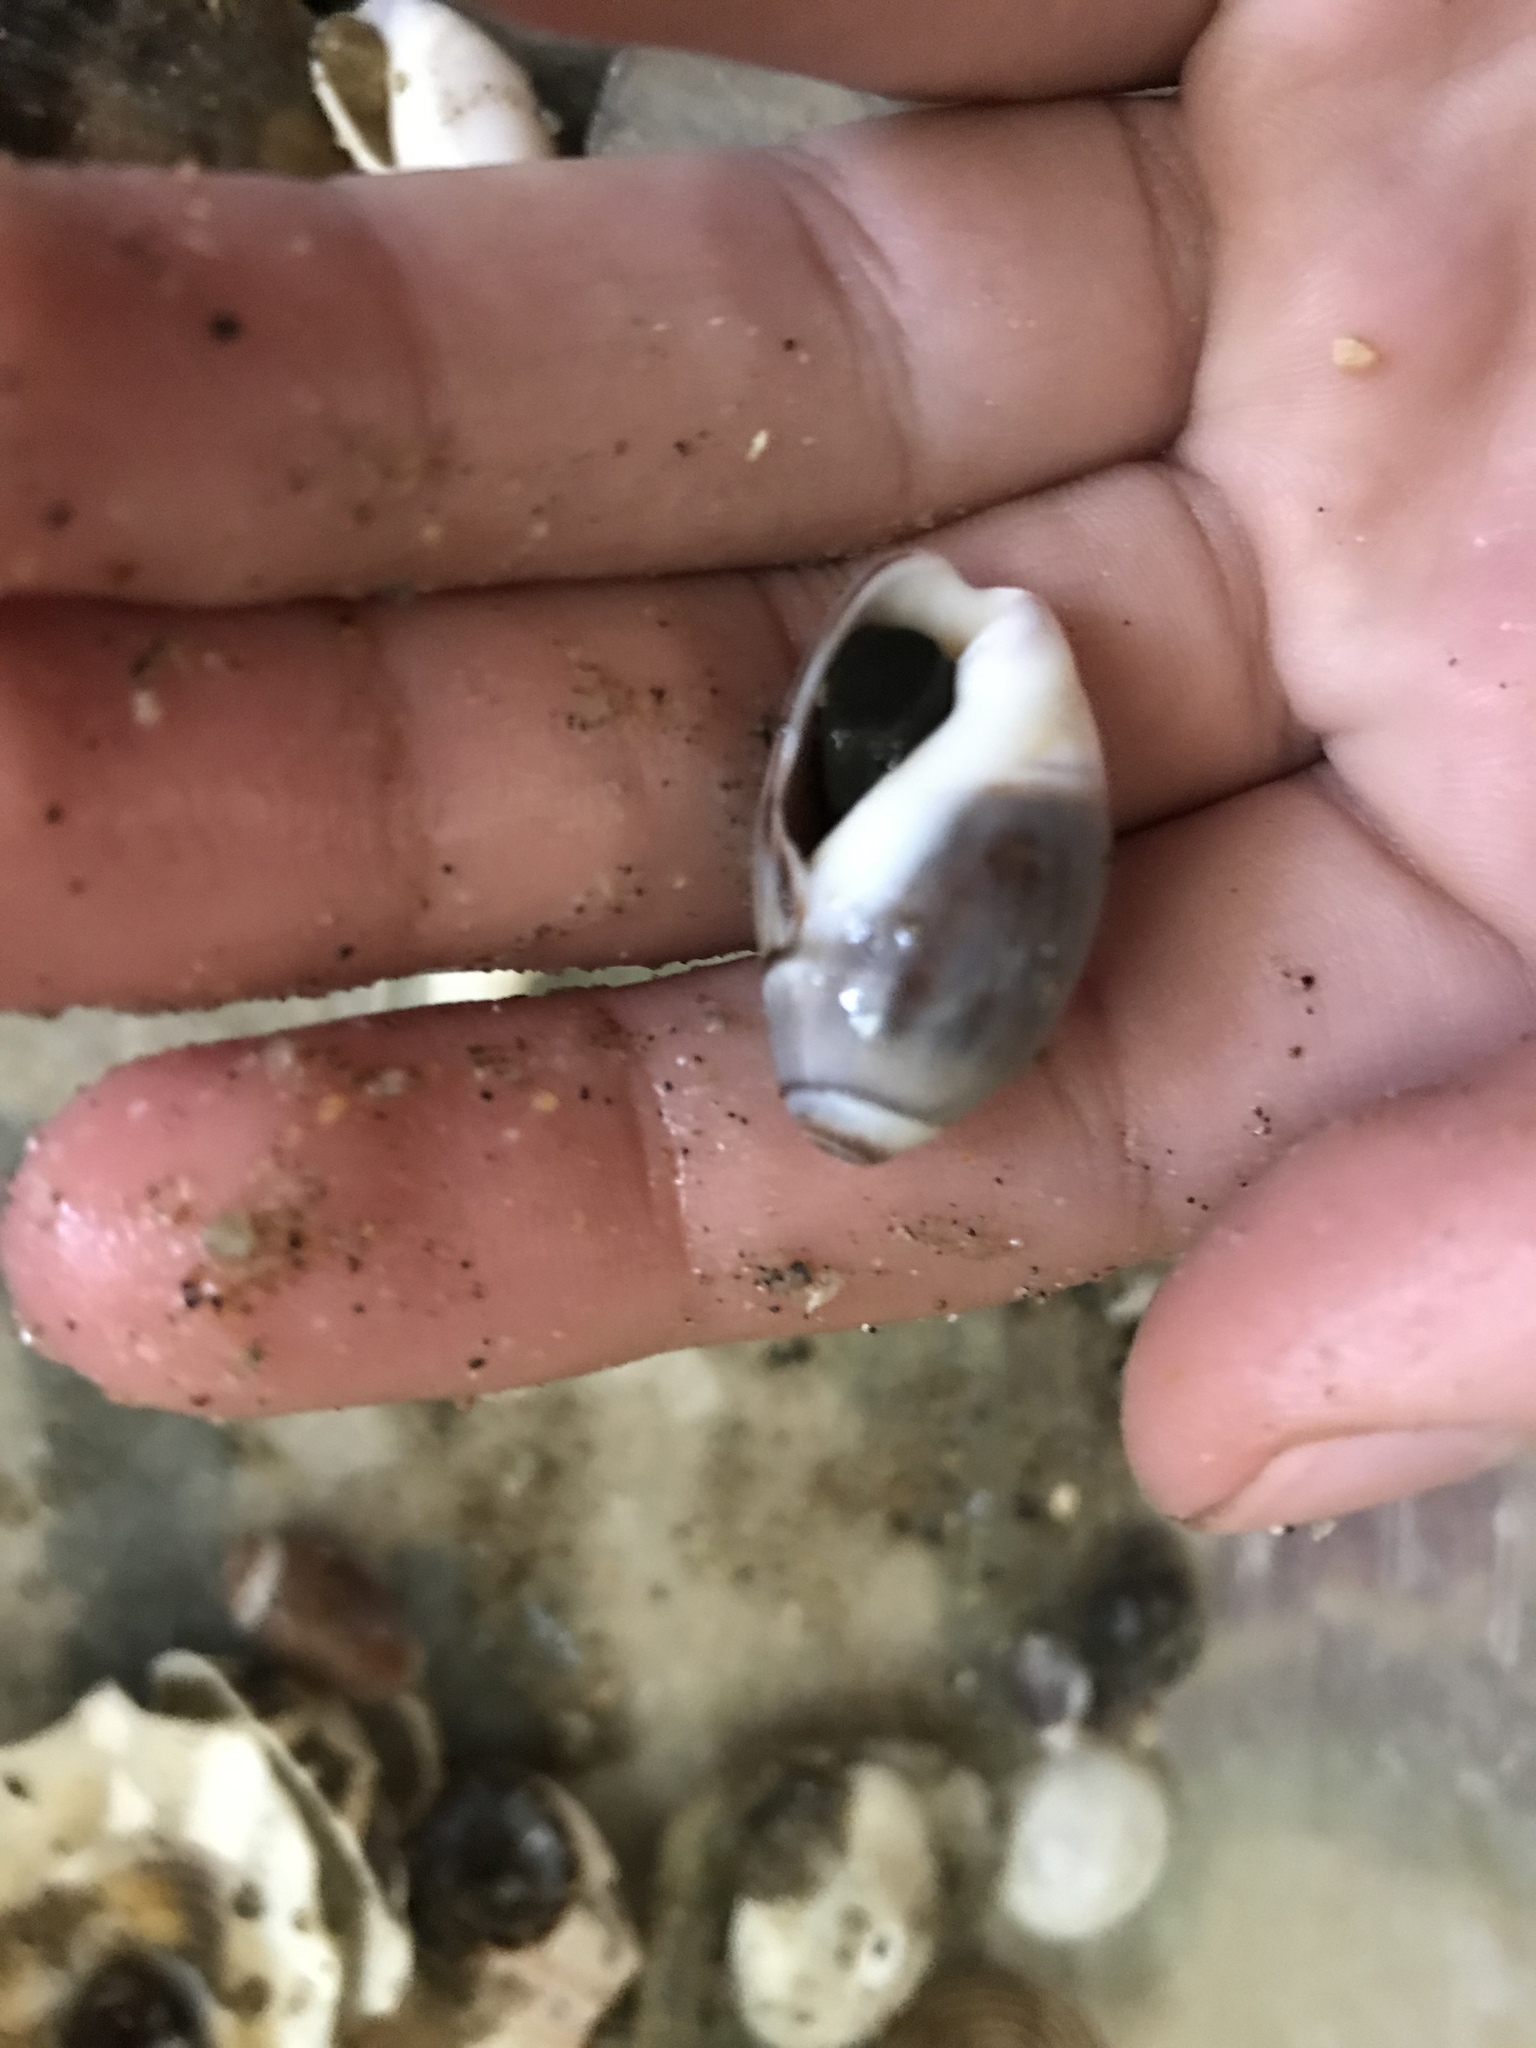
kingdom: Animalia
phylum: Mollusca
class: Gastropoda
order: Neogastropoda
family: Olividae
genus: Callianax
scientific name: Callianax biplicata
